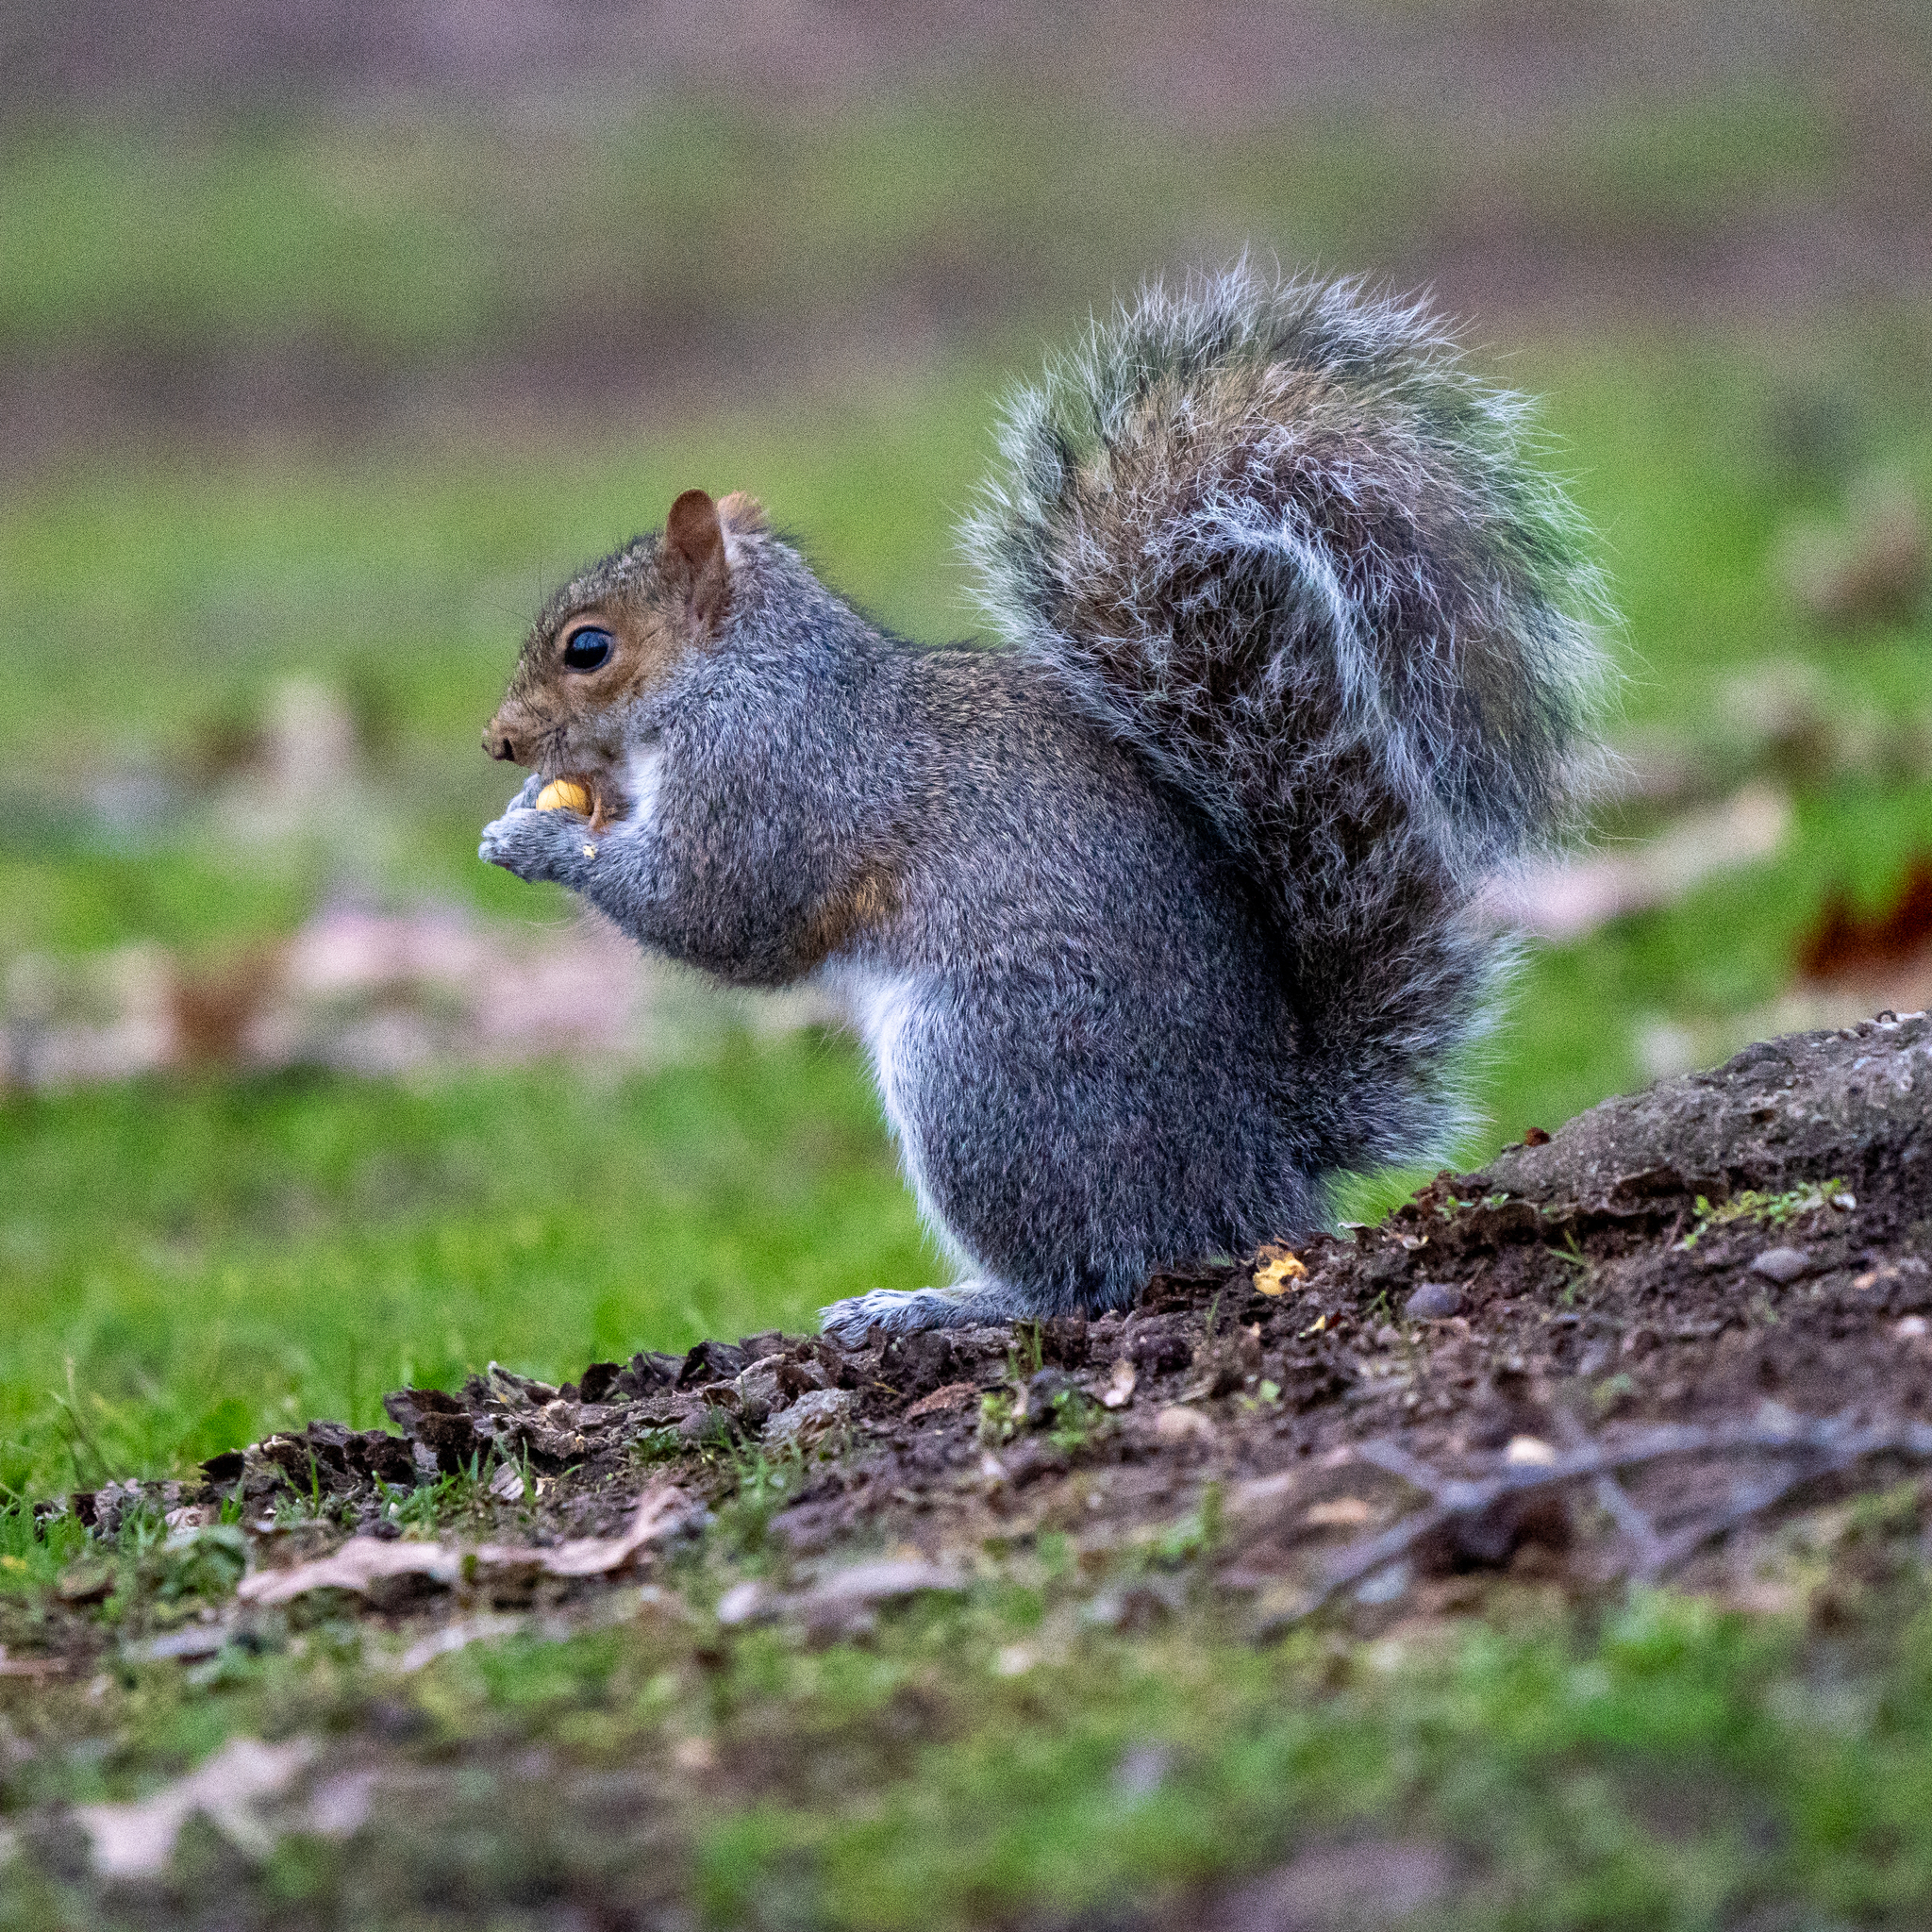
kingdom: Animalia
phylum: Chordata
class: Mammalia
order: Rodentia
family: Sciuridae
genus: Sciurus
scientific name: Sciurus carolinensis
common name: Eastern gray squirrel
